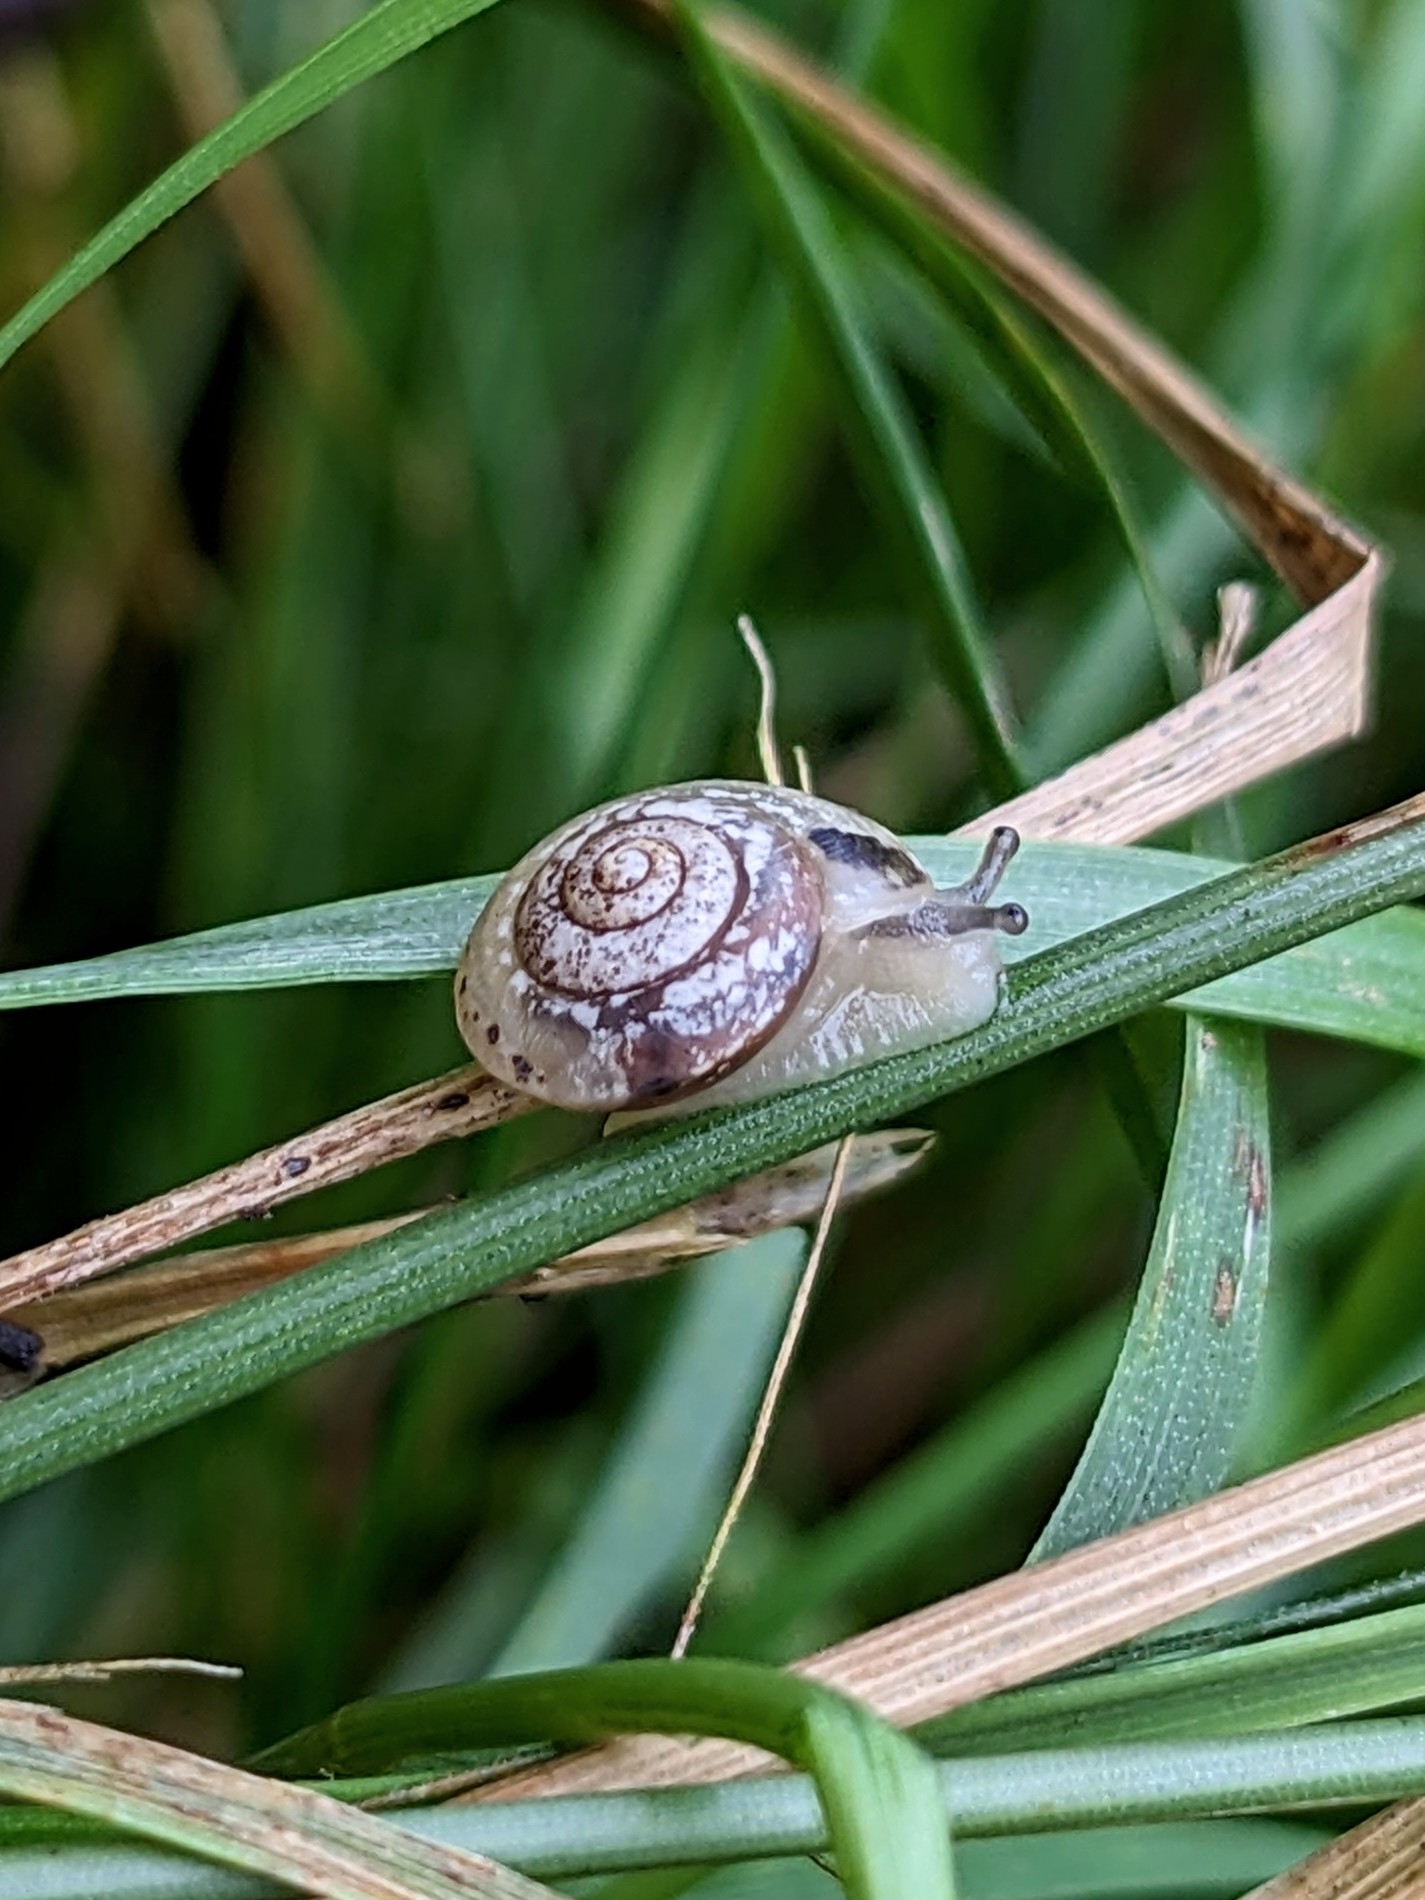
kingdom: Animalia
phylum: Mollusca
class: Gastropoda
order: Stylommatophora
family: Hygromiidae
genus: Hygromia
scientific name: Hygromia cinctella
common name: Girdled snail
